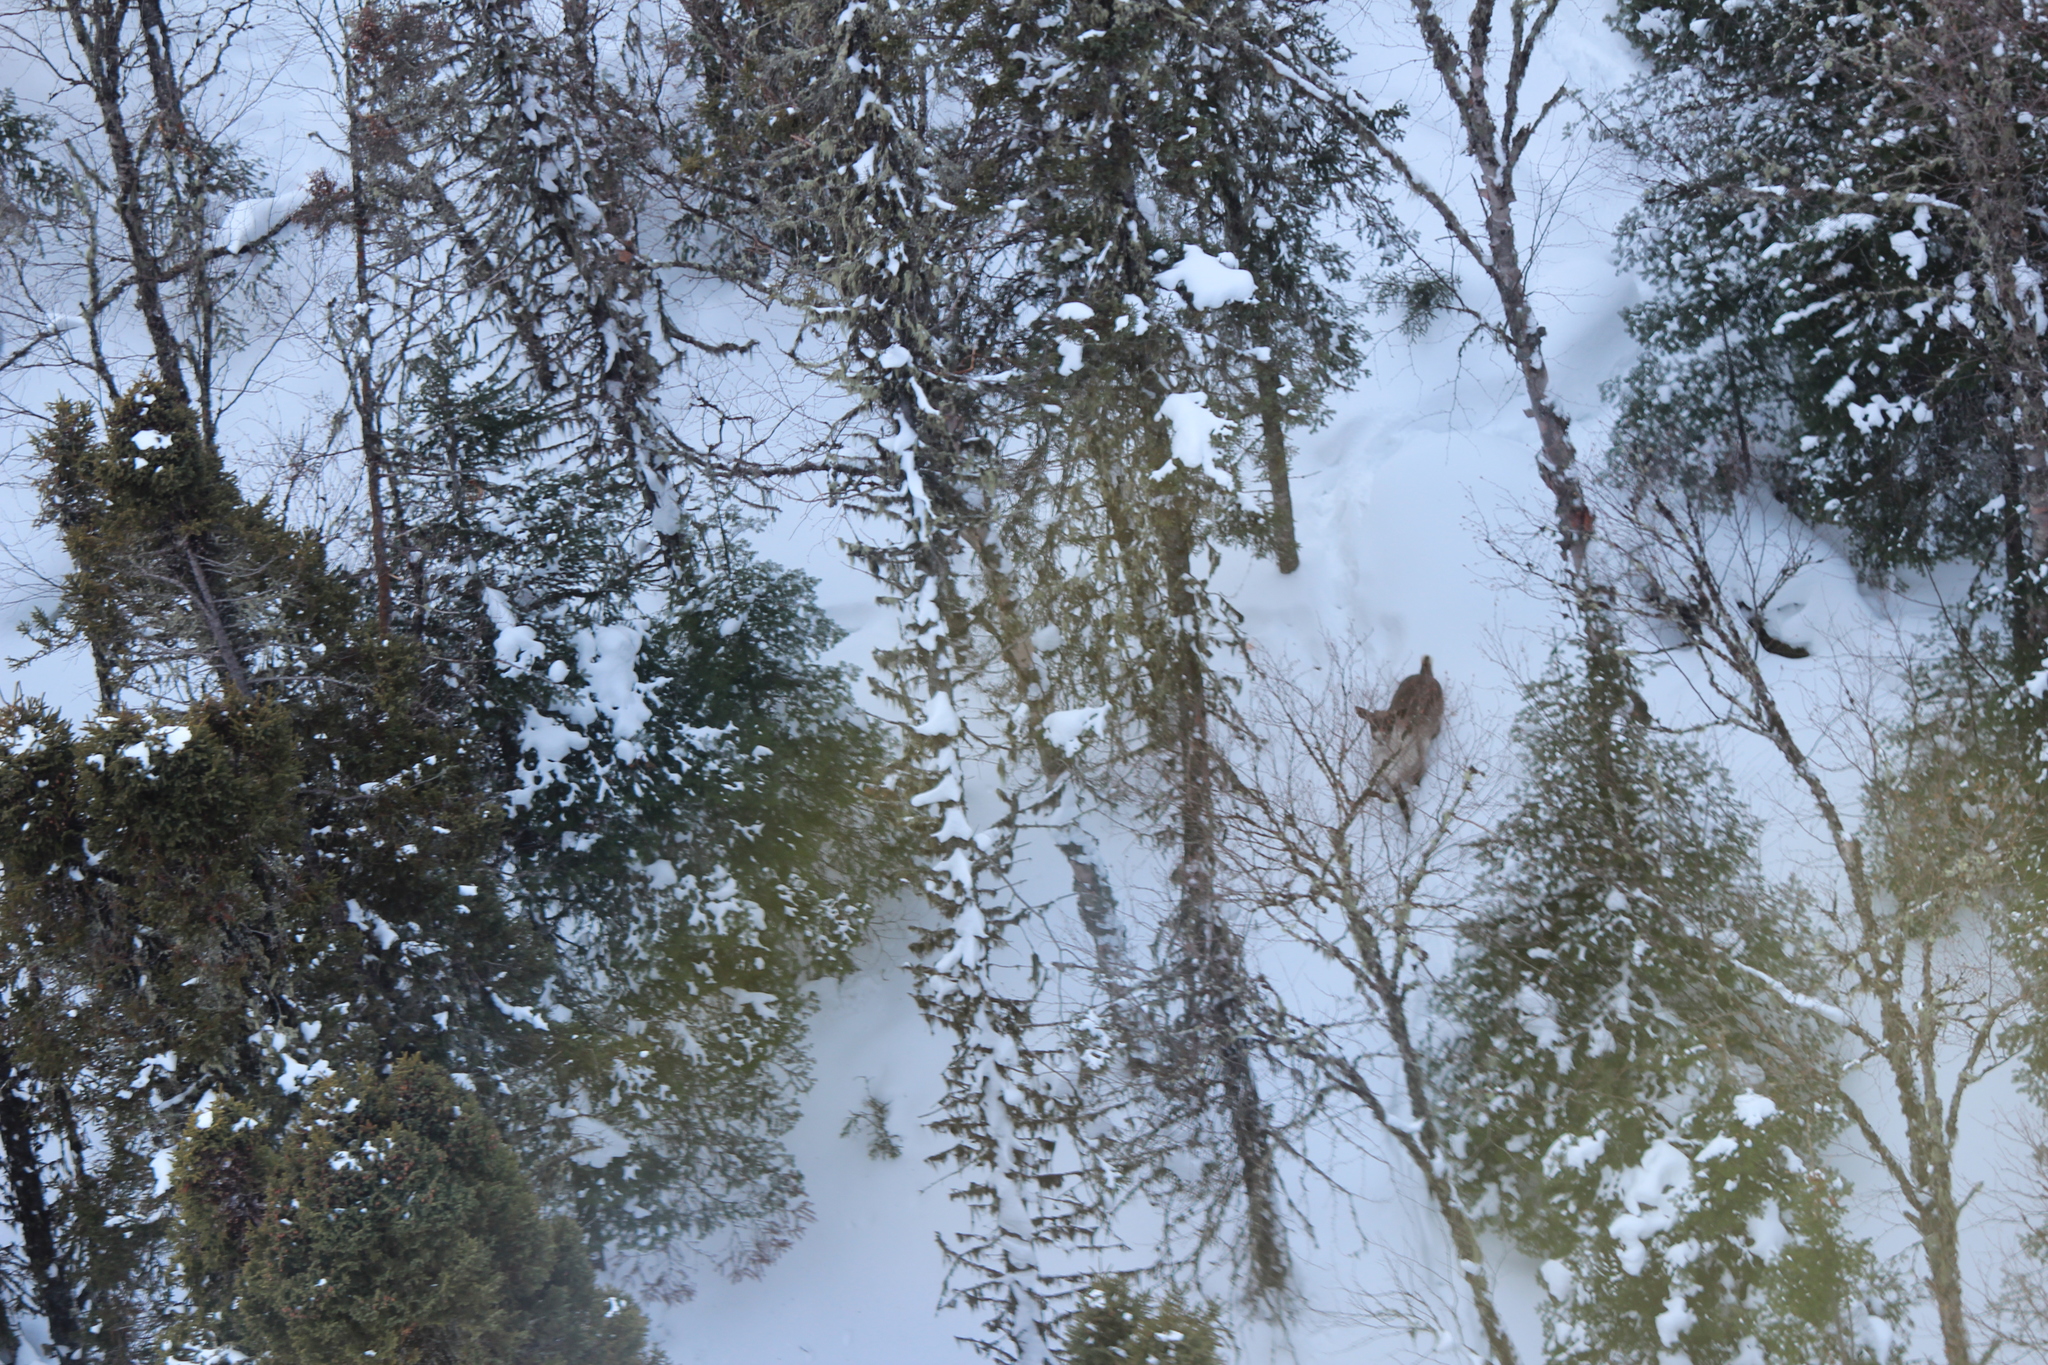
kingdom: Animalia
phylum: Chordata
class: Mammalia
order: Artiodactyla
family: Cervidae
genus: Rangifer
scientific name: Rangifer tarandus
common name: Reindeer
